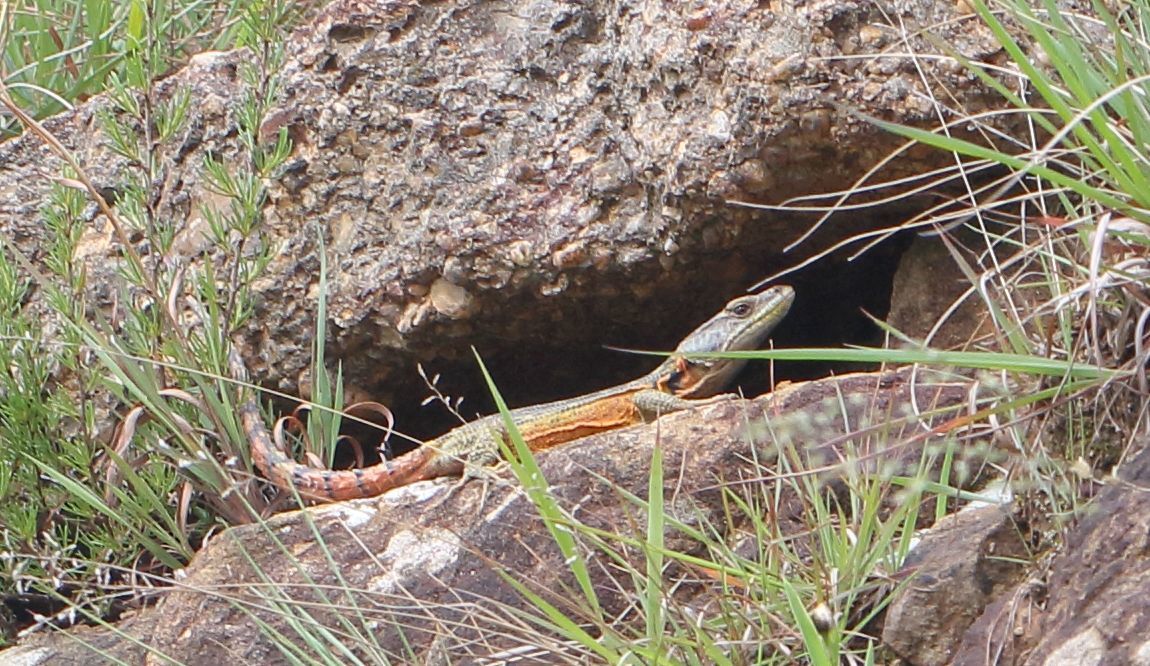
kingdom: Animalia
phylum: Chordata
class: Squamata
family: Cordylidae
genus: Pseudocordylus
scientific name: Pseudocordylus subviridis
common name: Drakensberg crag lizard
